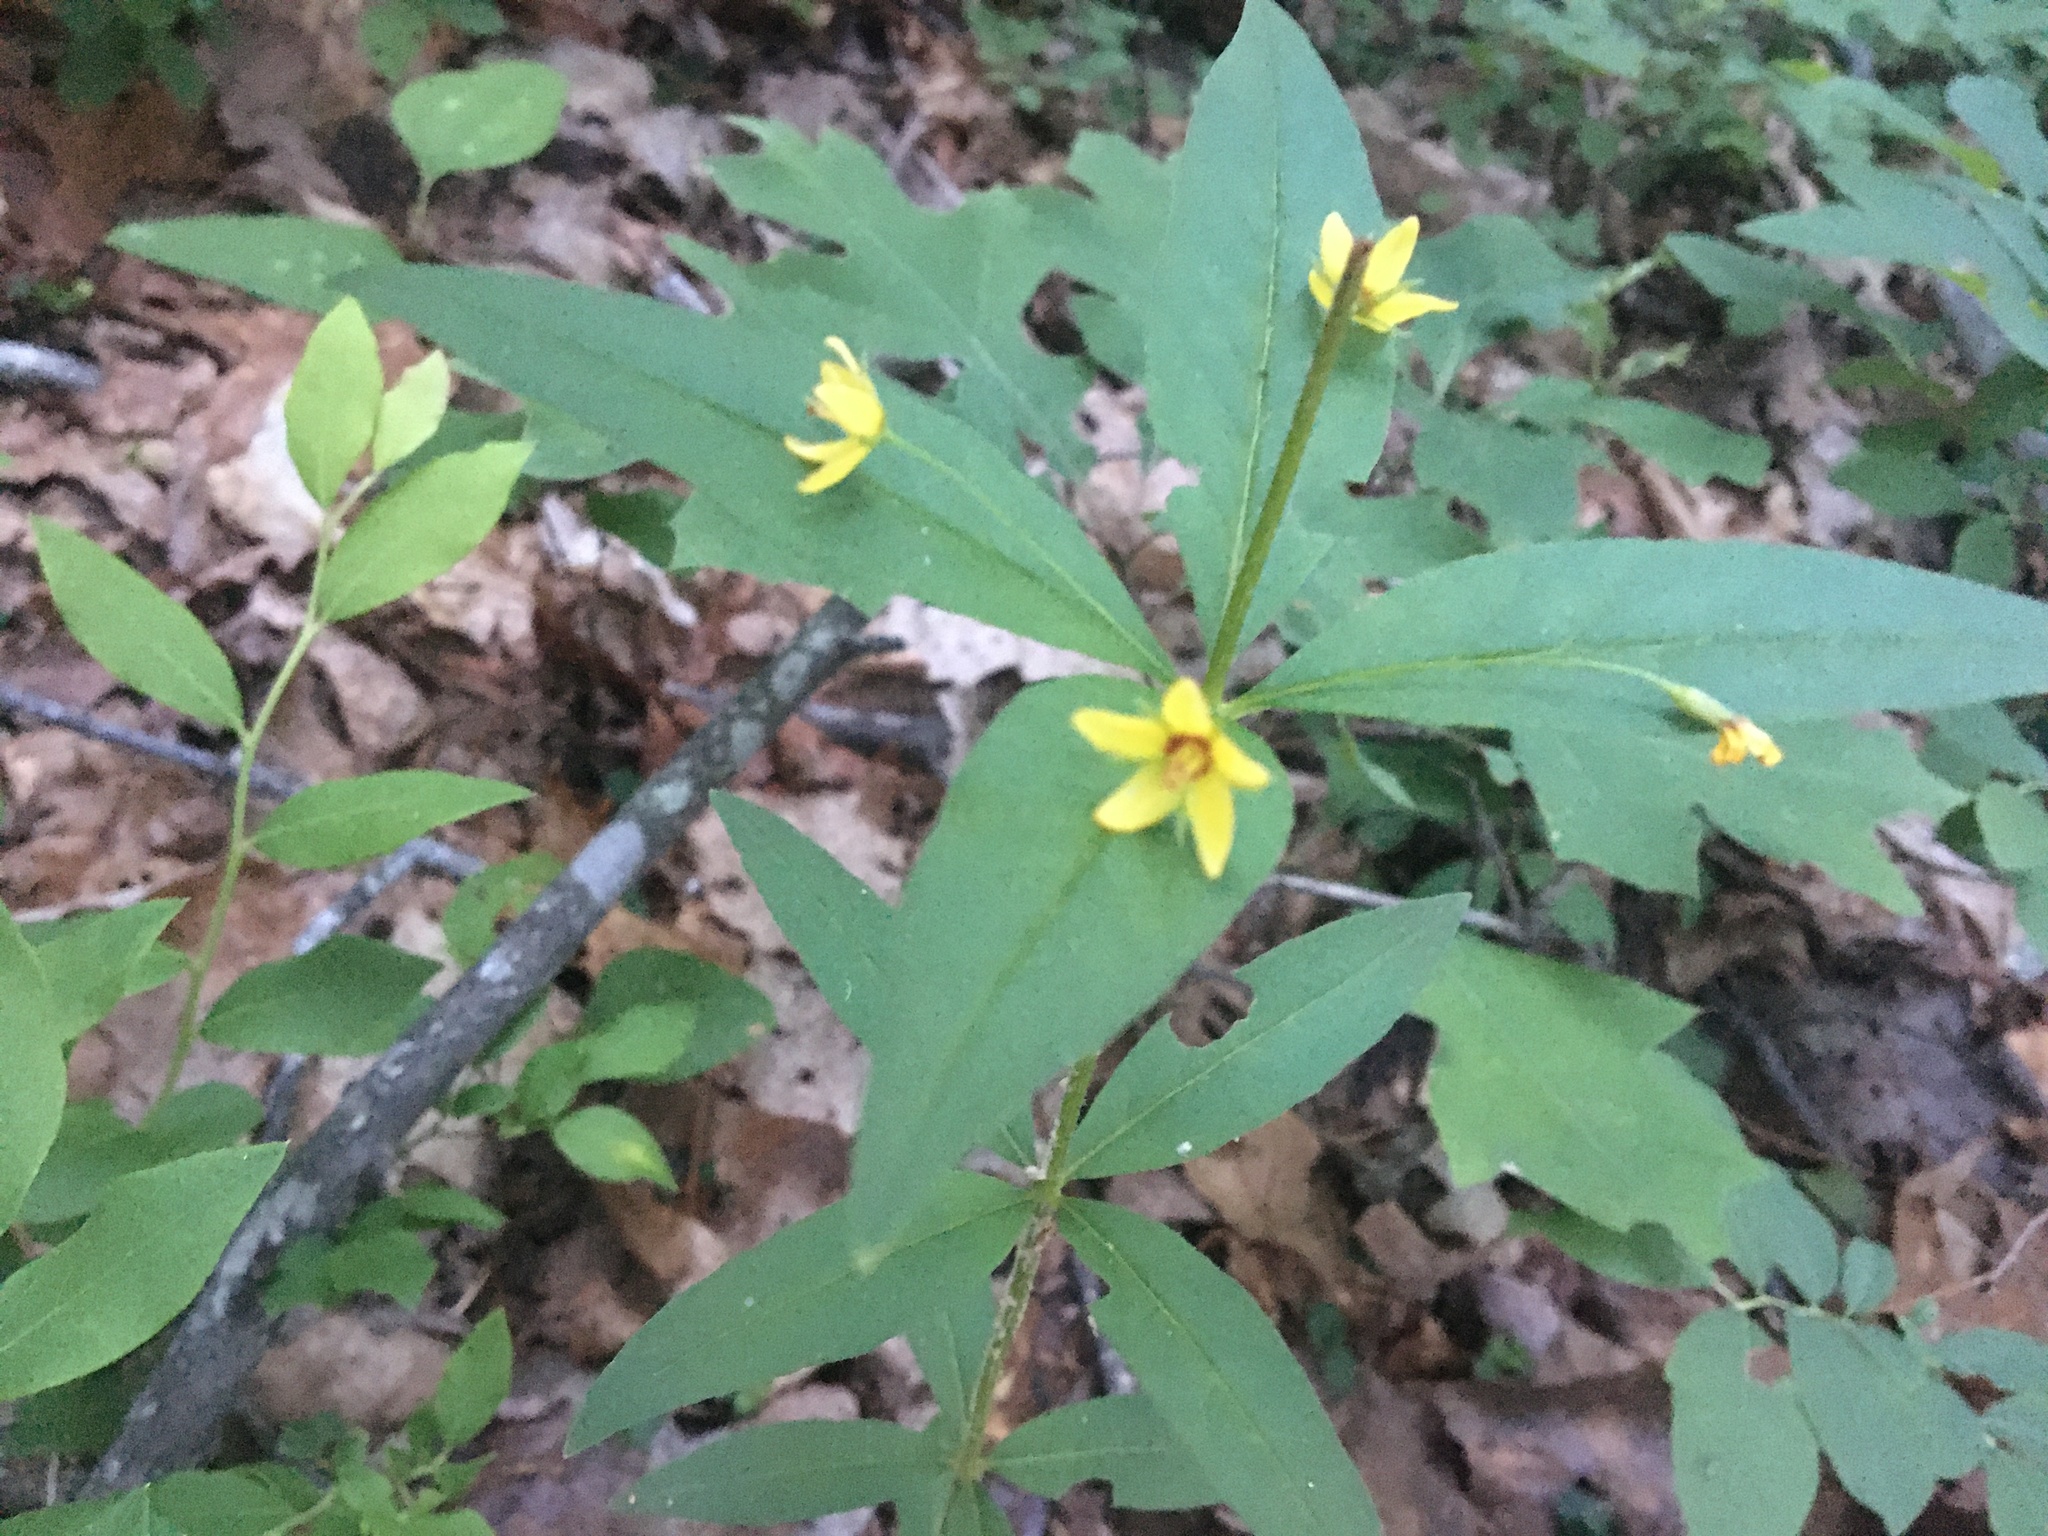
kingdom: Plantae
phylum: Tracheophyta
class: Magnoliopsida
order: Ericales
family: Primulaceae
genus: Lysimachia
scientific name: Lysimachia quadrifolia
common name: Whorled loosestrife
